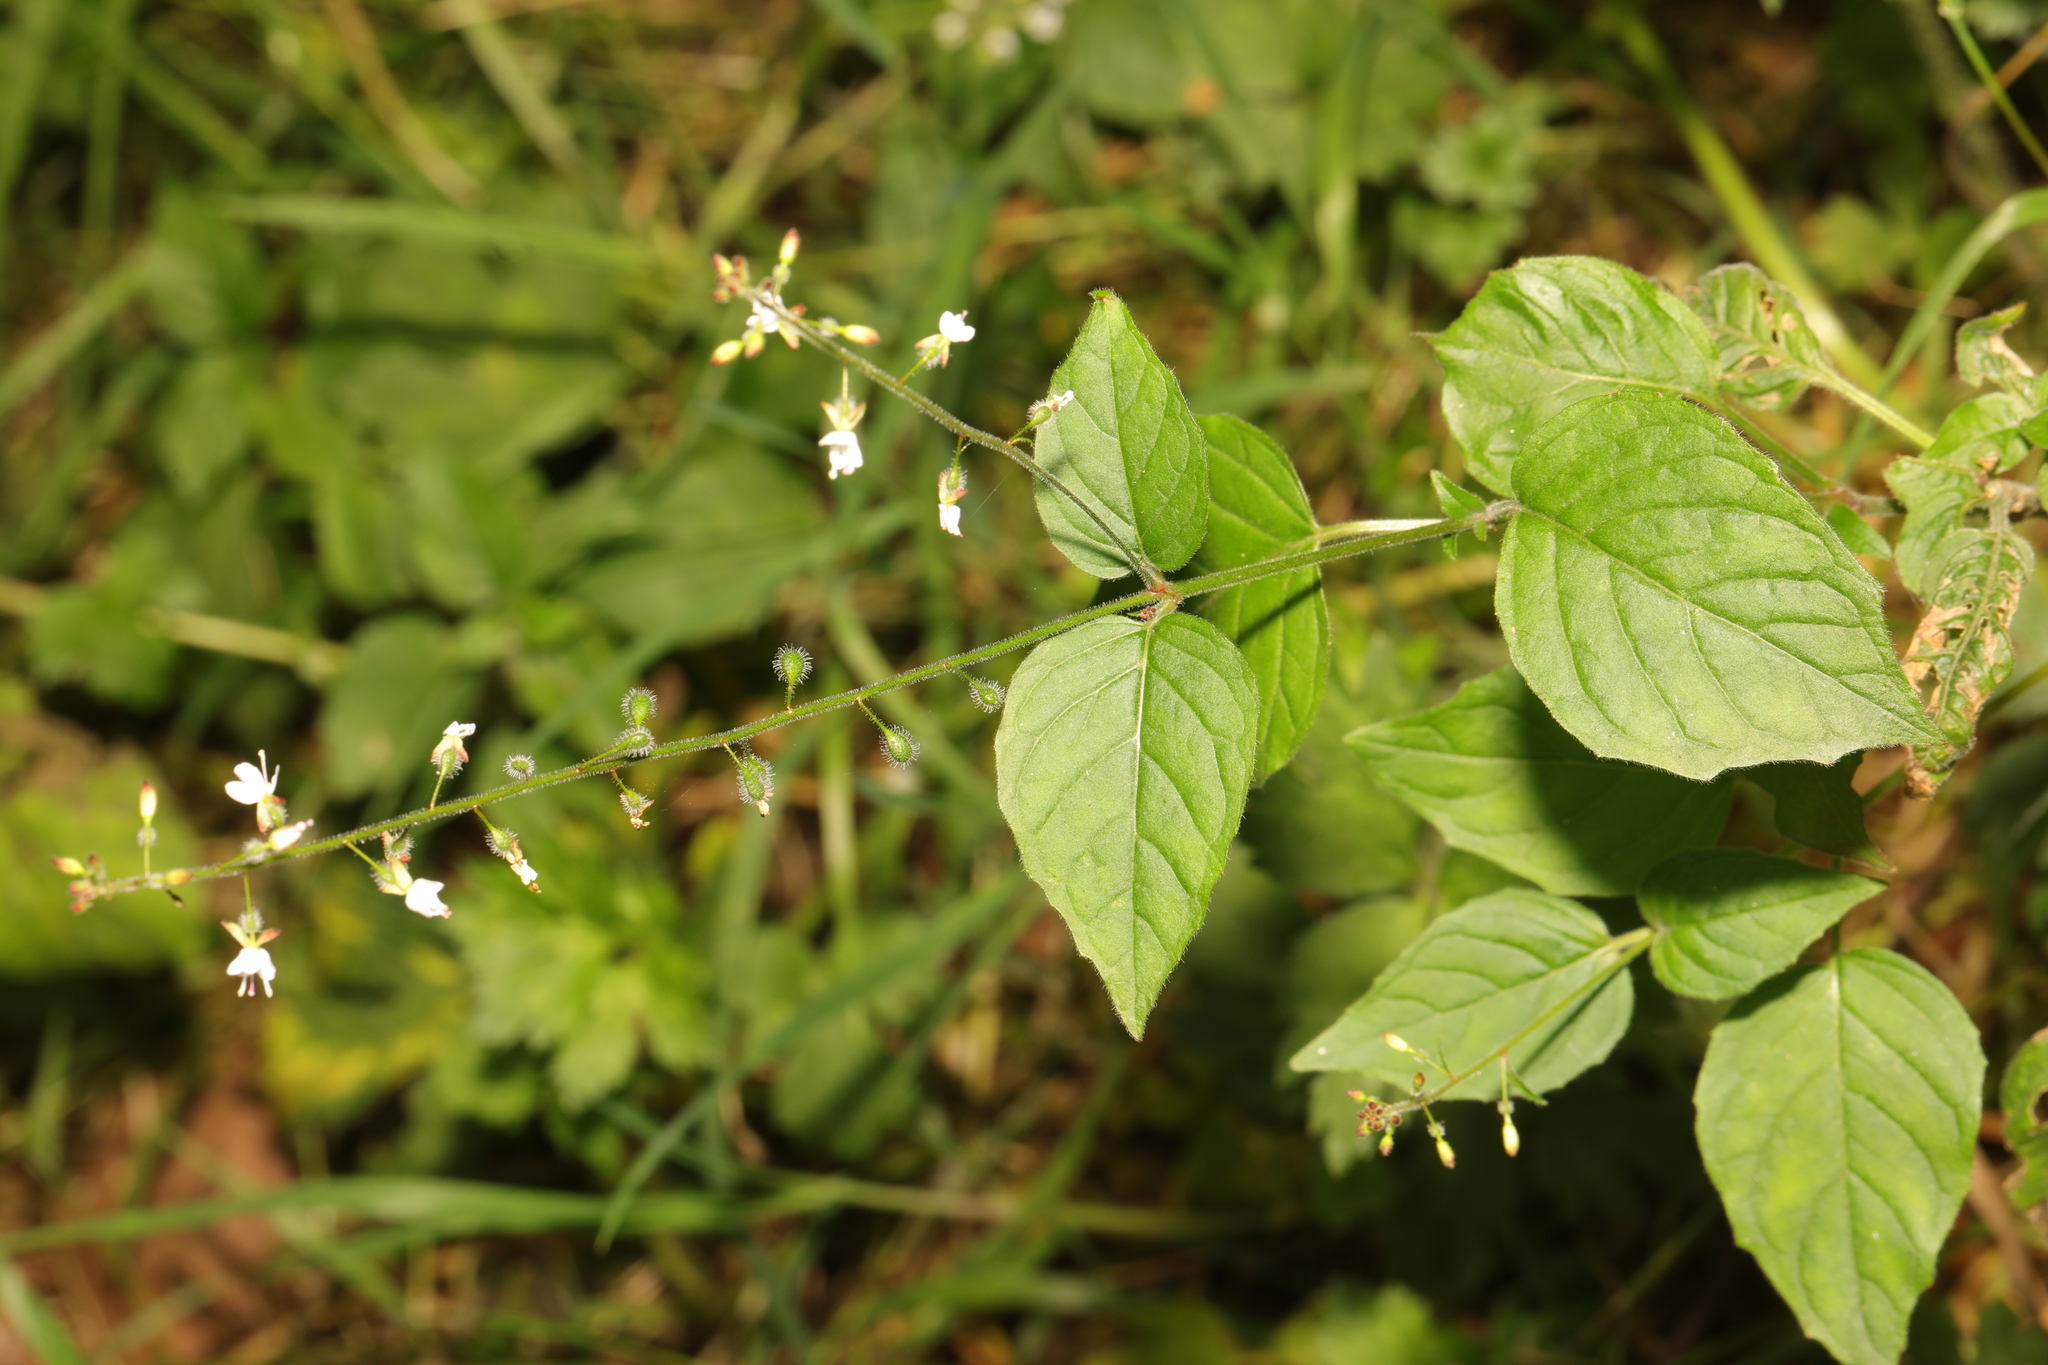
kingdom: Plantae
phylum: Tracheophyta
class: Magnoliopsida
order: Myrtales
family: Onagraceae
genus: Circaea
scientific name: Circaea lutetiana
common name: Enchanter's-nightshade
